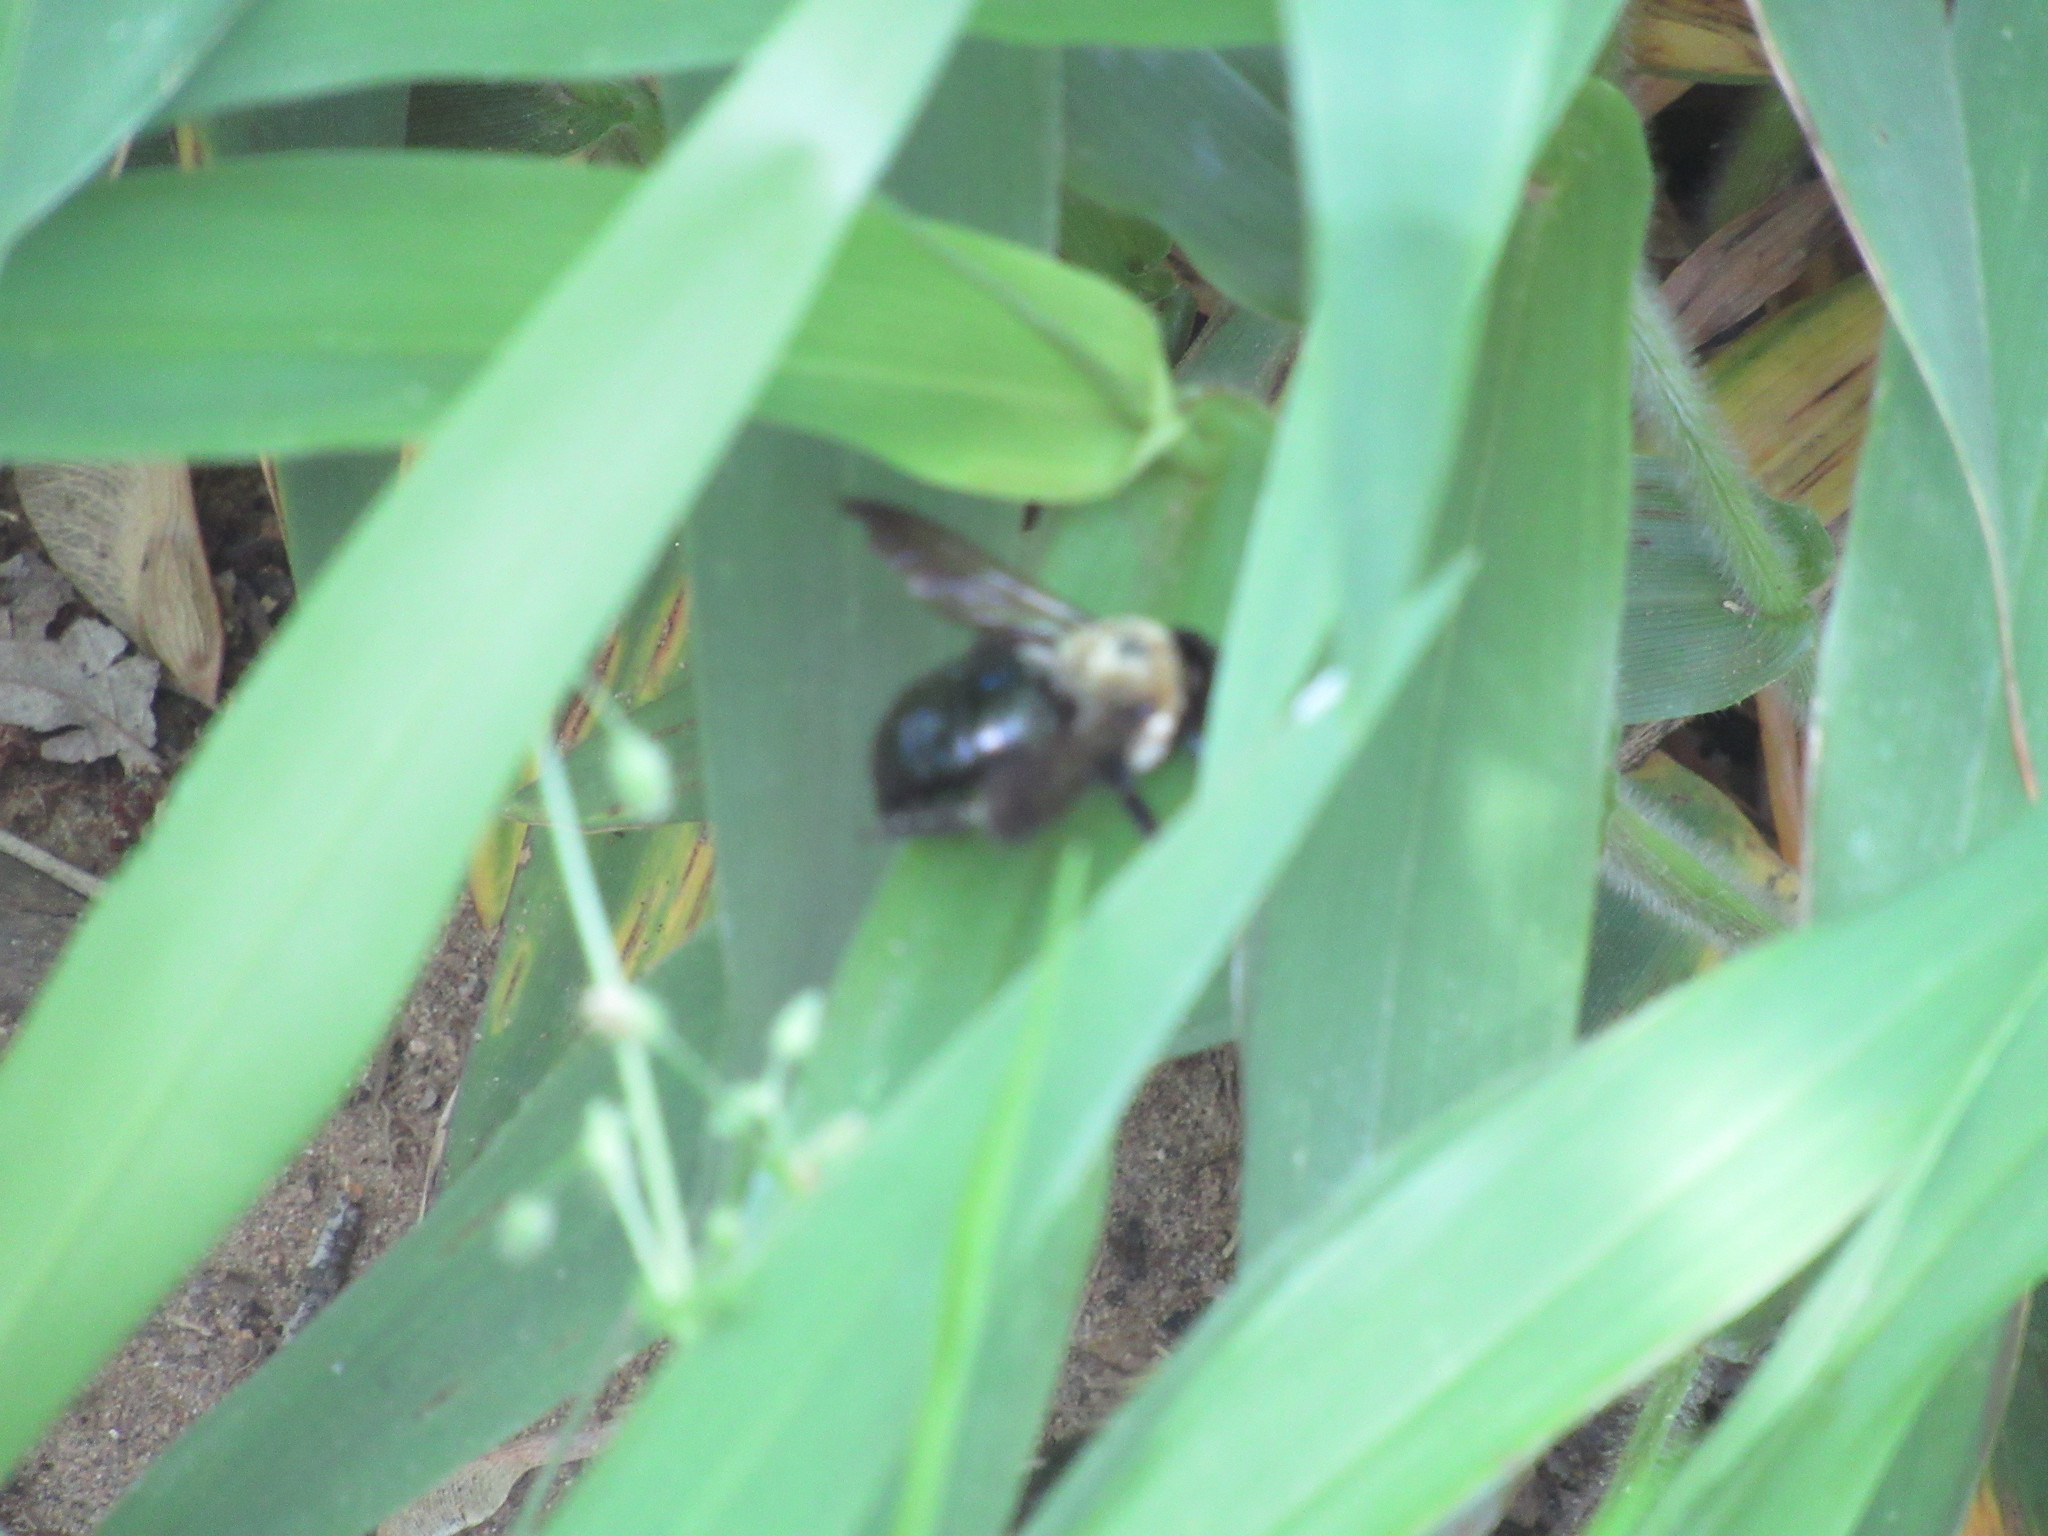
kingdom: Animalia
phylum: Arthropoda
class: Insecta
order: Hymenoptera
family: Apidae
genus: Xylocopa
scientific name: Xylocopa virginica
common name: Carpenter bee
